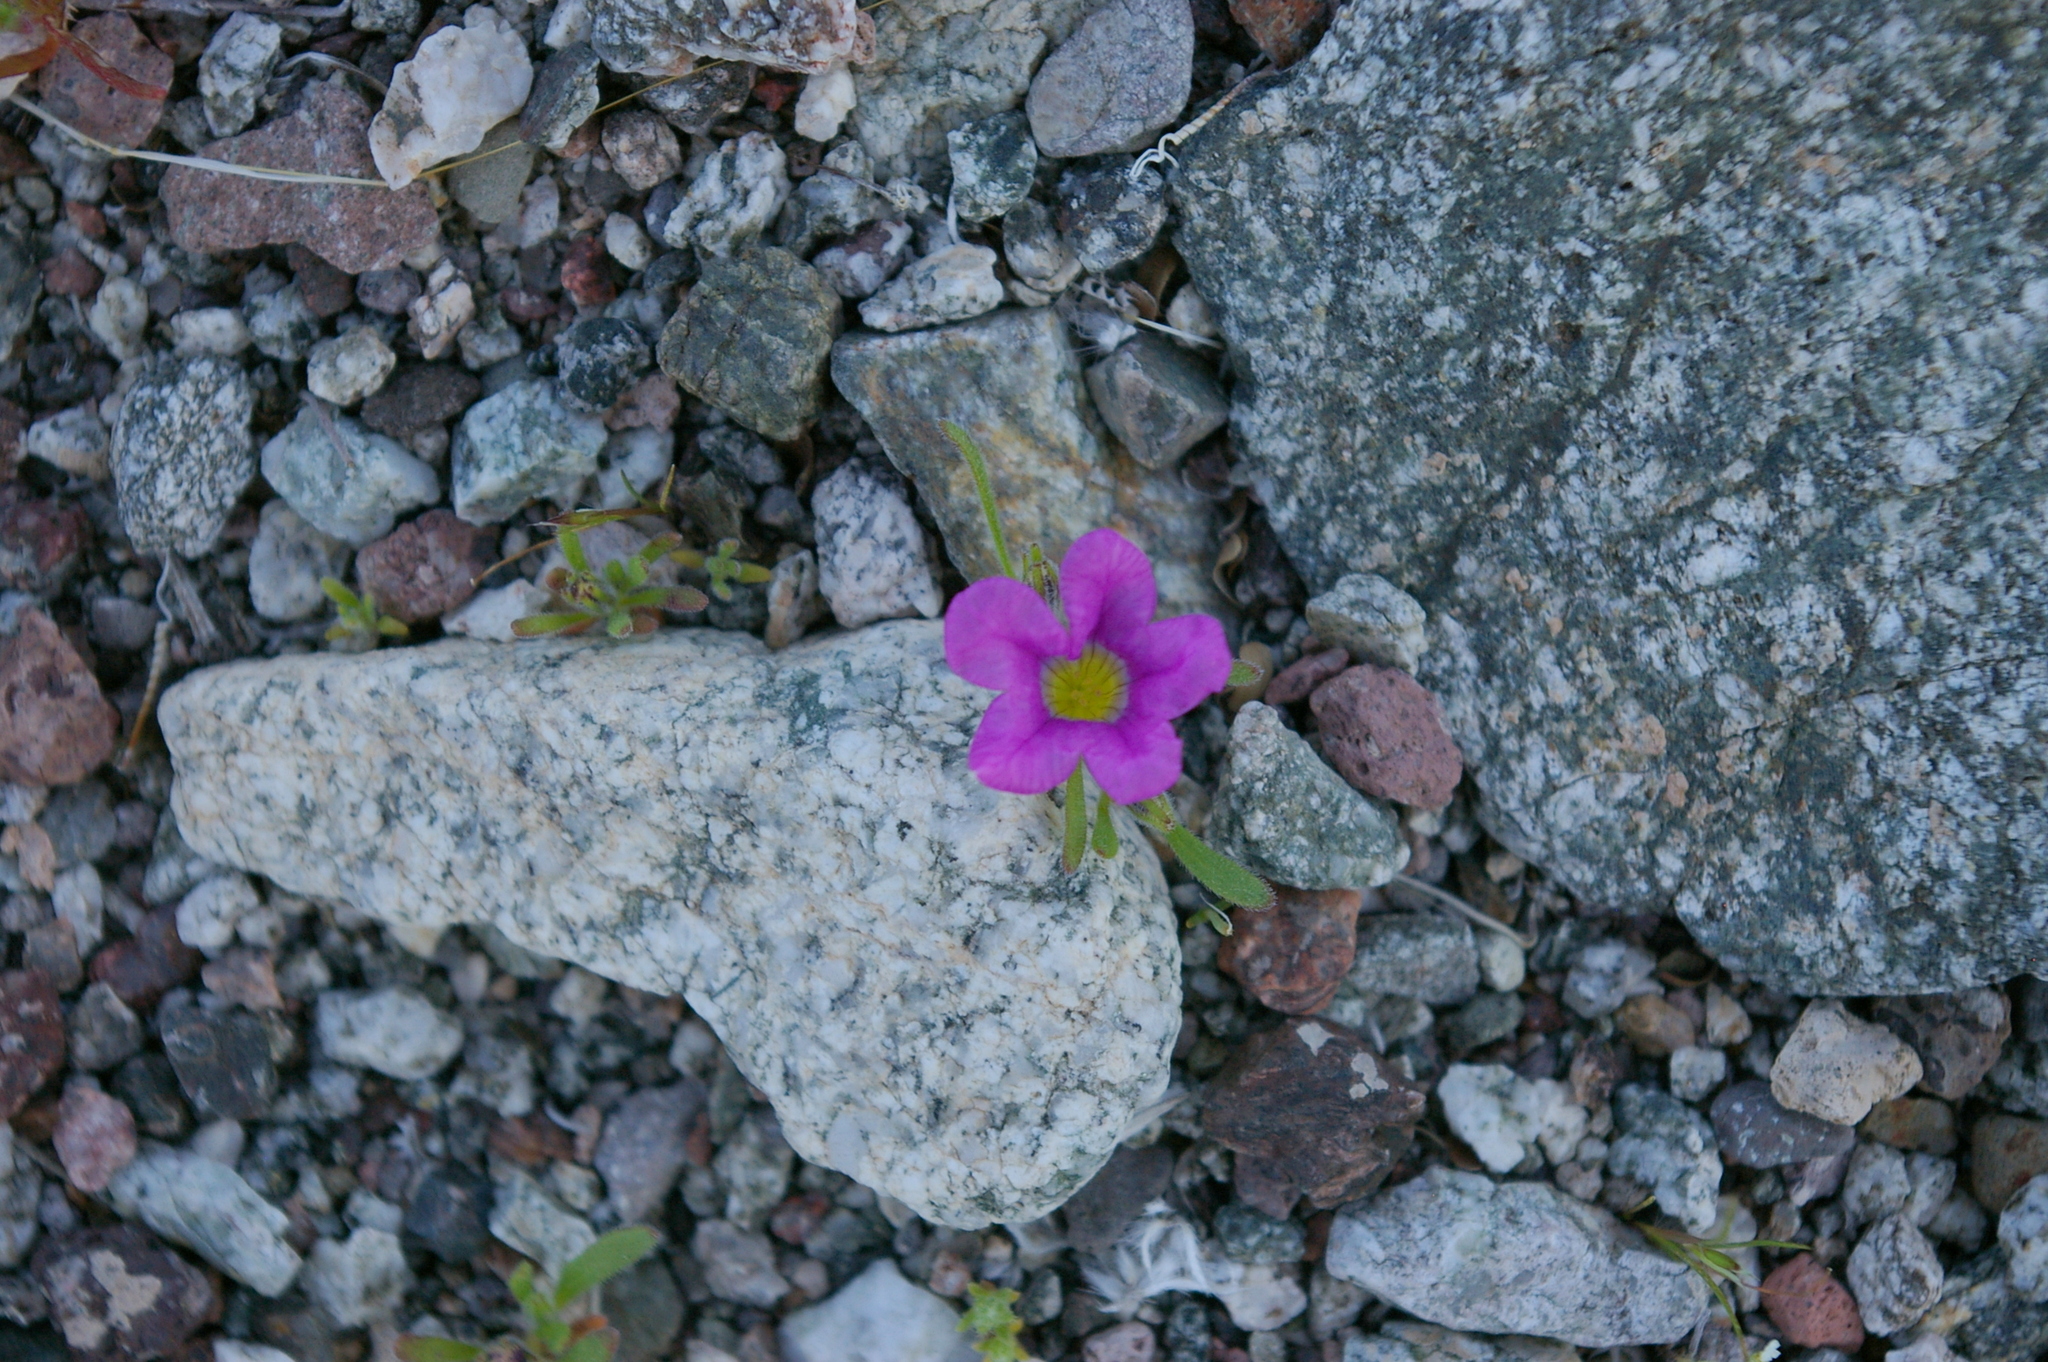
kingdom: Plantae
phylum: Tracheophyta
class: Magnoliopsida
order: Boraginales
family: Namaceae
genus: Nama
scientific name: Nama demissa
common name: Leafy nama
